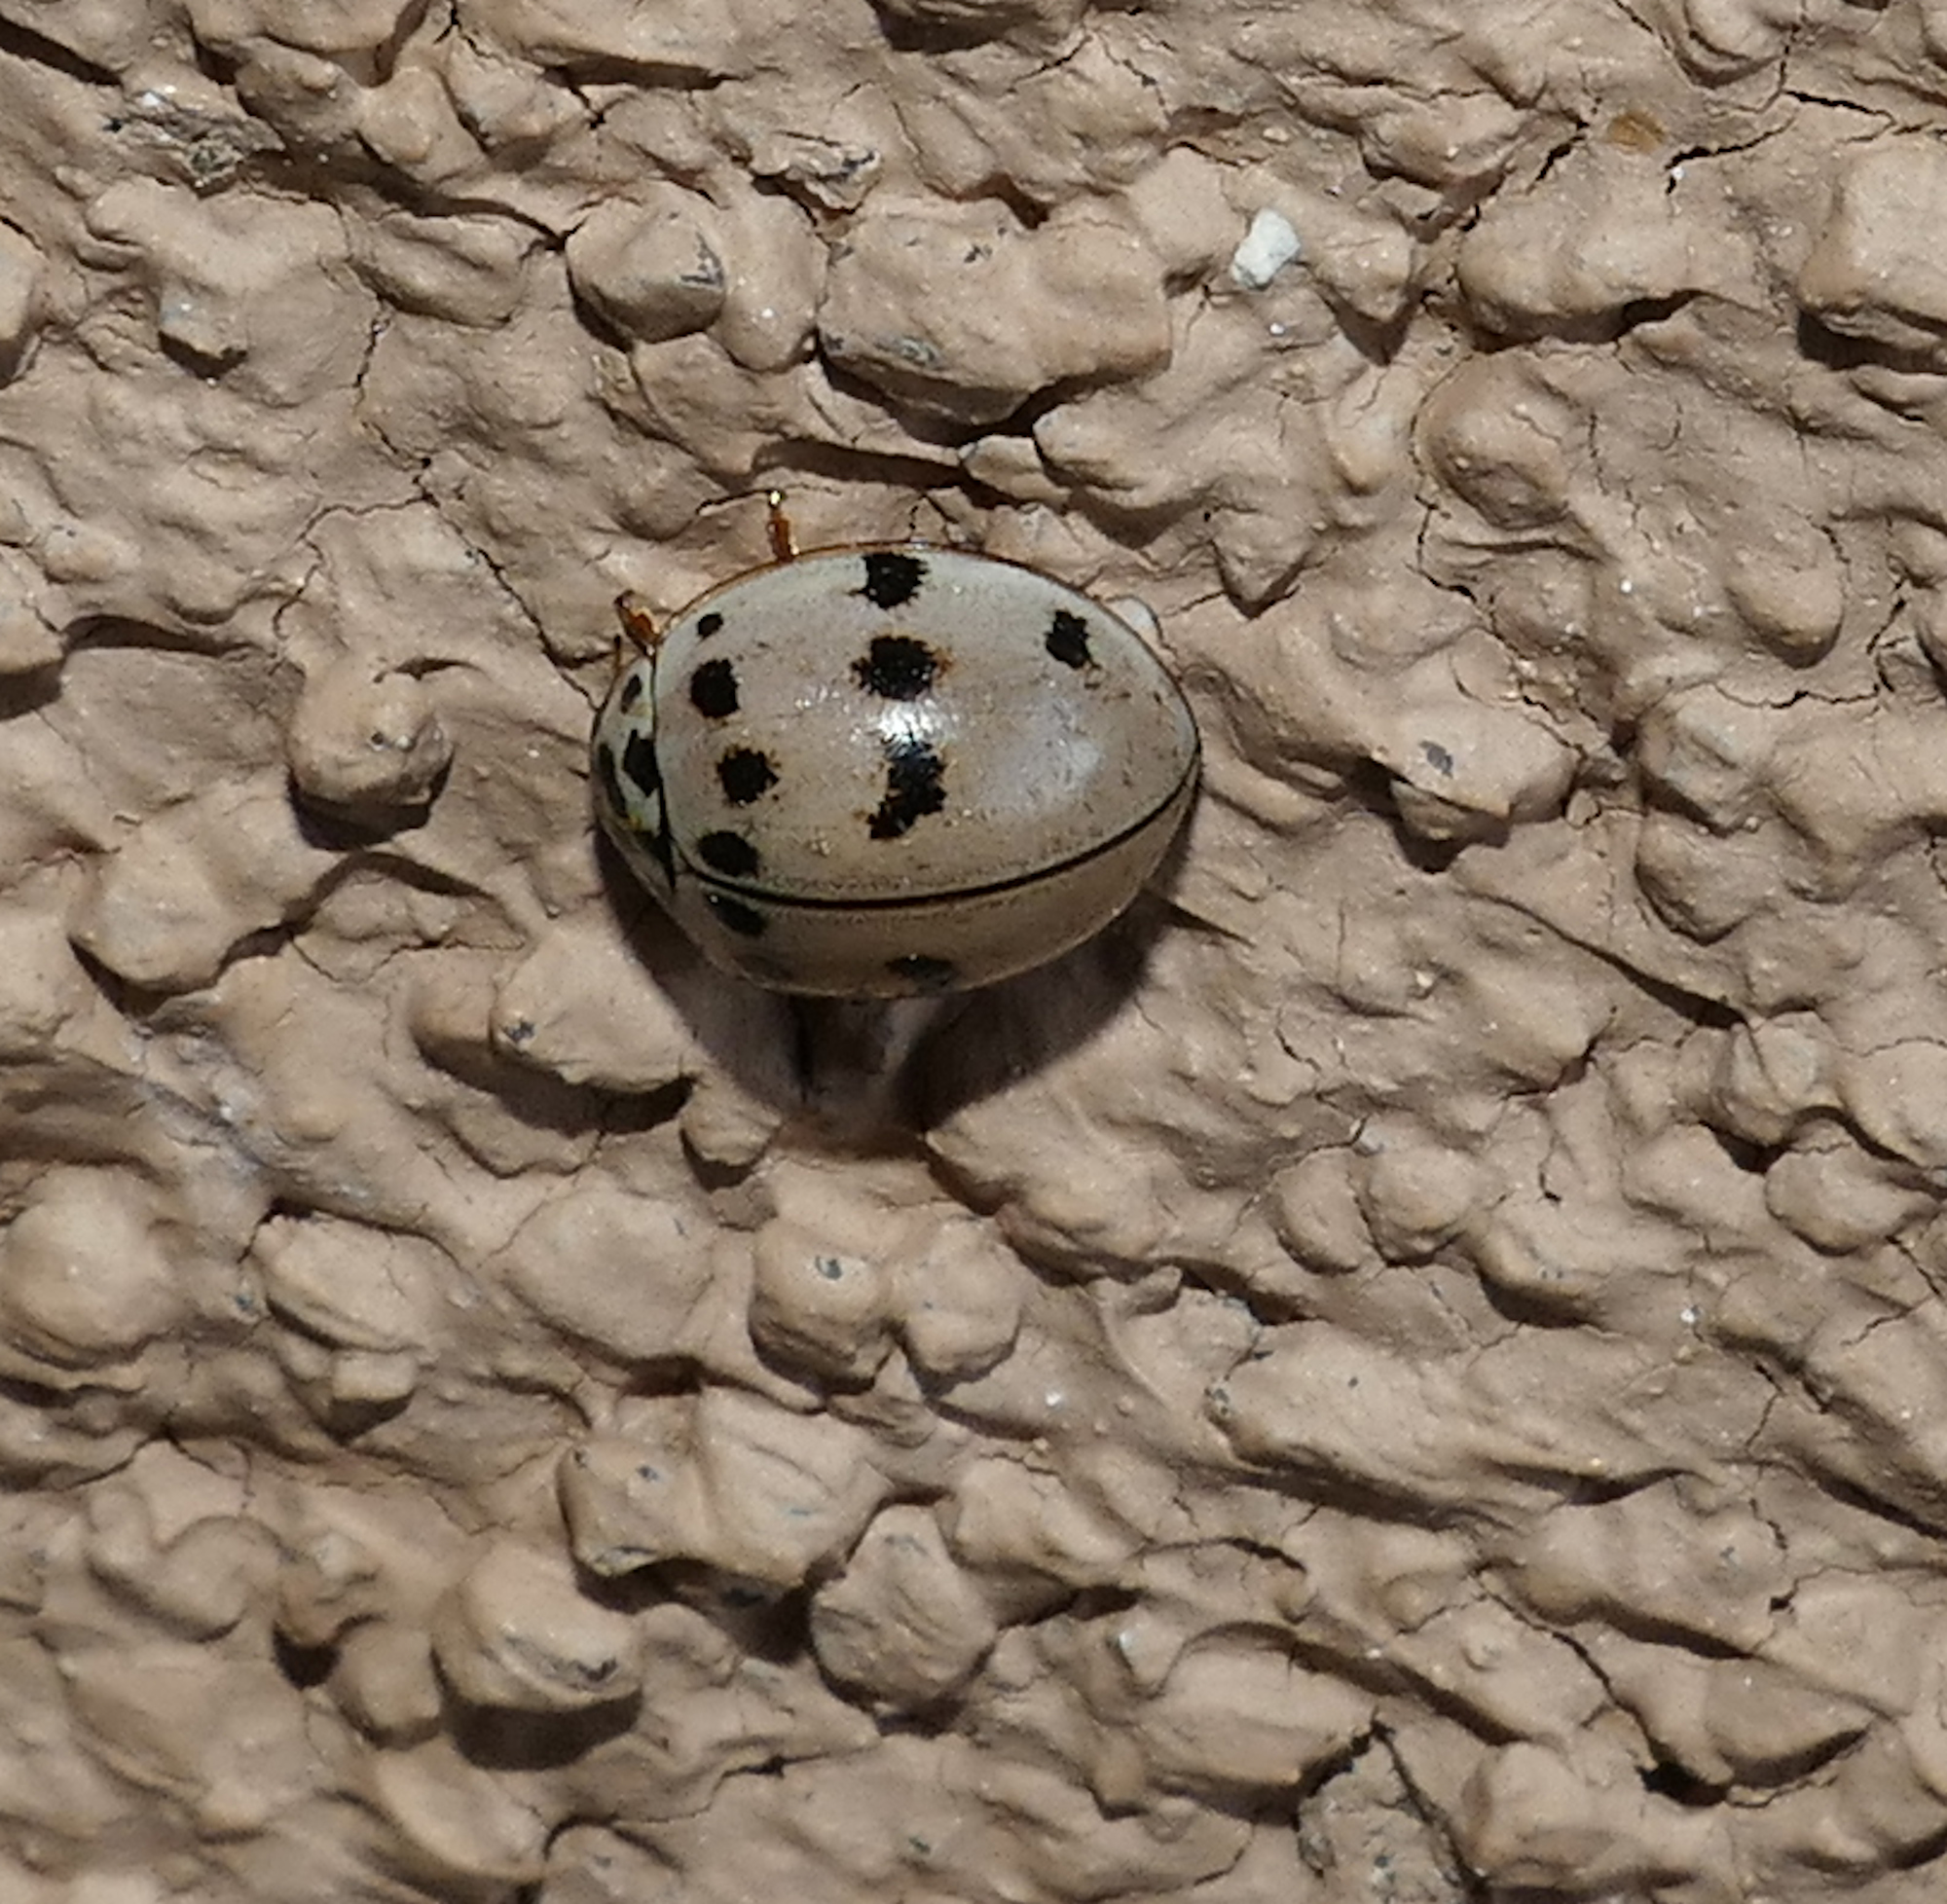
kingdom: Animalia
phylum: Arthropoda
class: Insecta
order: Coleoptera
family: Coccinellidae
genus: Olla
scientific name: Olla v-nigrum
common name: Ashy gray lady beetle
